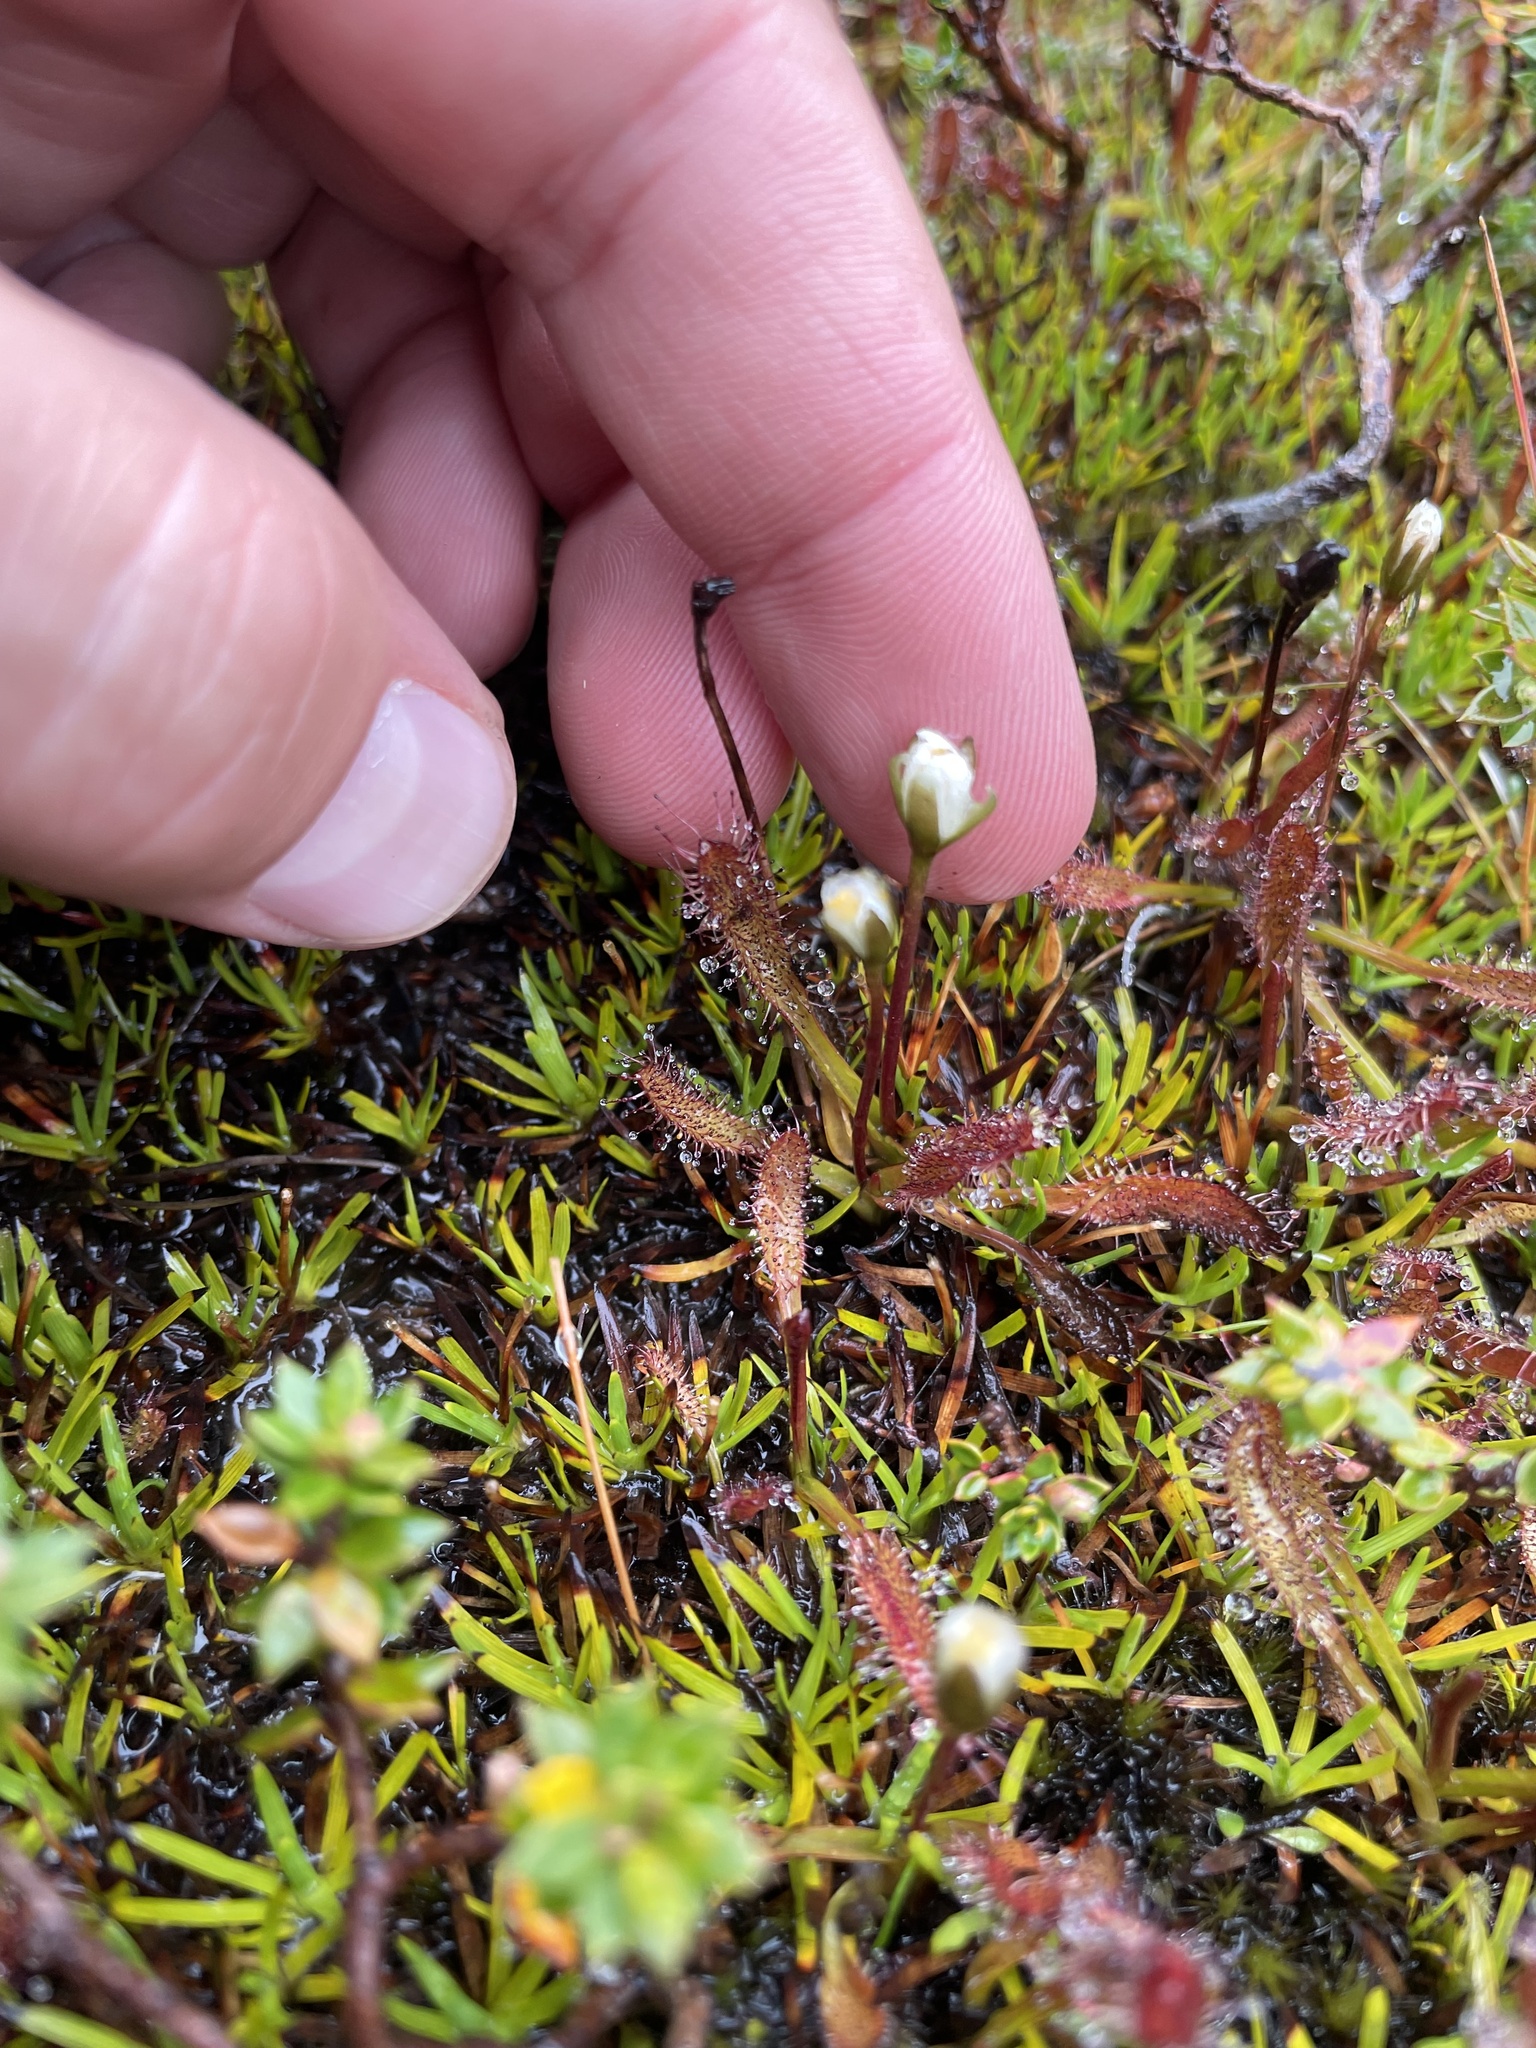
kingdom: Plantae
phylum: Tracheophyta
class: Magnoliopsida
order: Caryophyllales
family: Droseraceae
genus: Drosera
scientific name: Drosera arcturi
